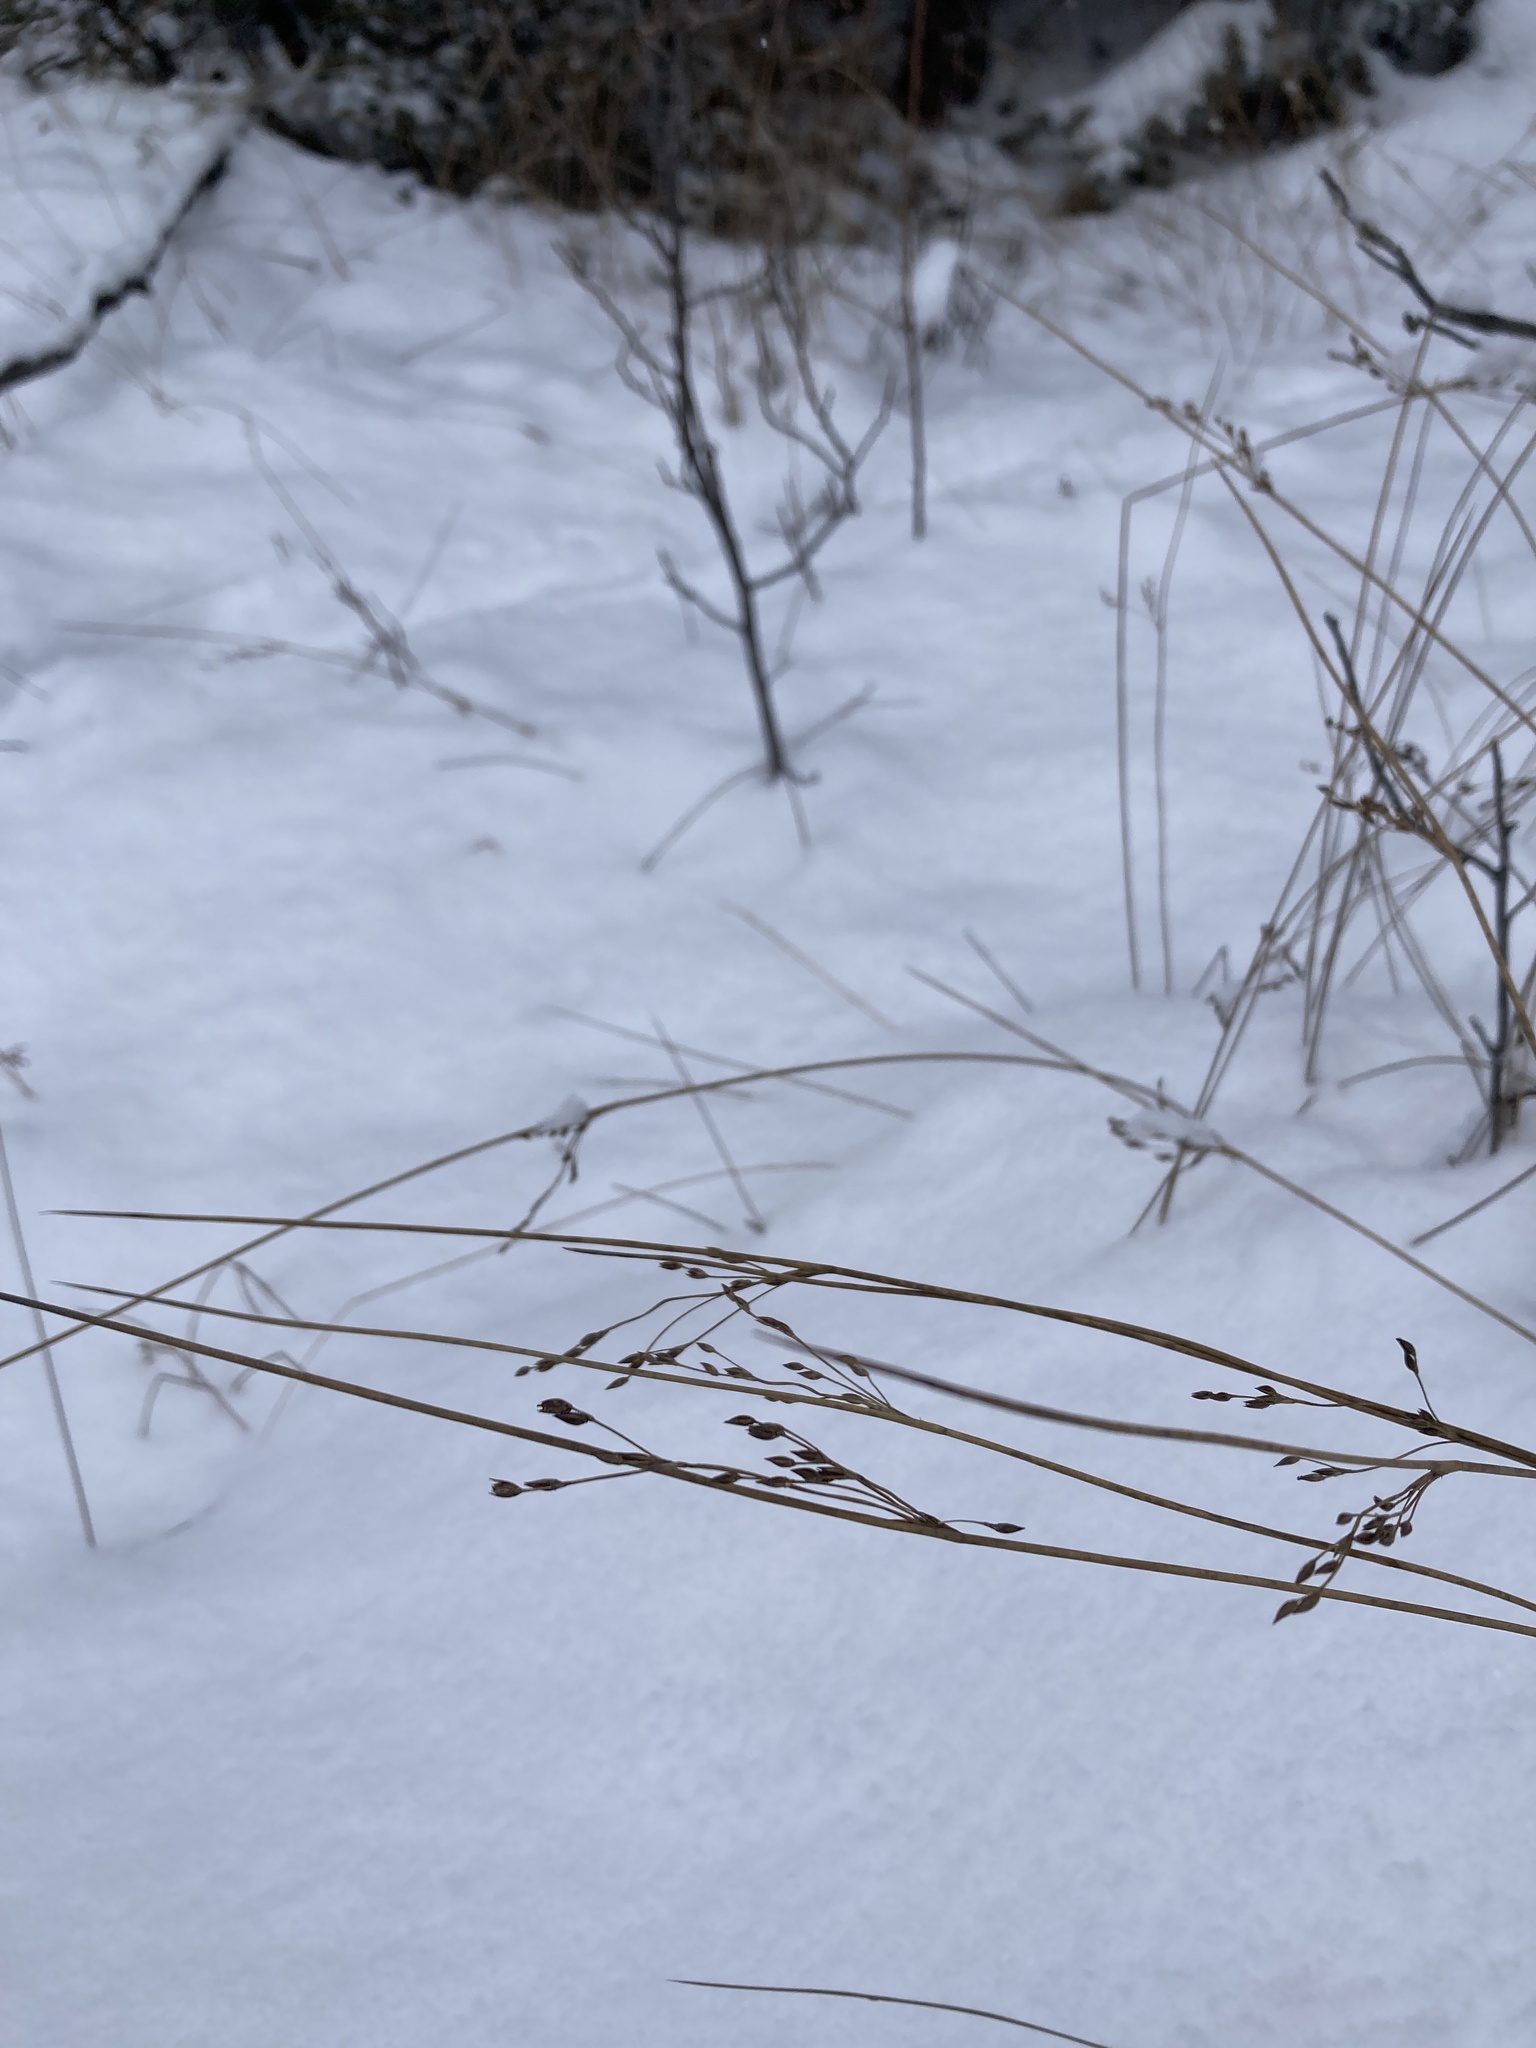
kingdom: Plantae
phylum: Tracheophyta
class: Liliopsida
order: Poales
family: Juncaceae
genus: Juncus
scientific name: Juncus balticus
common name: Baltic rush
